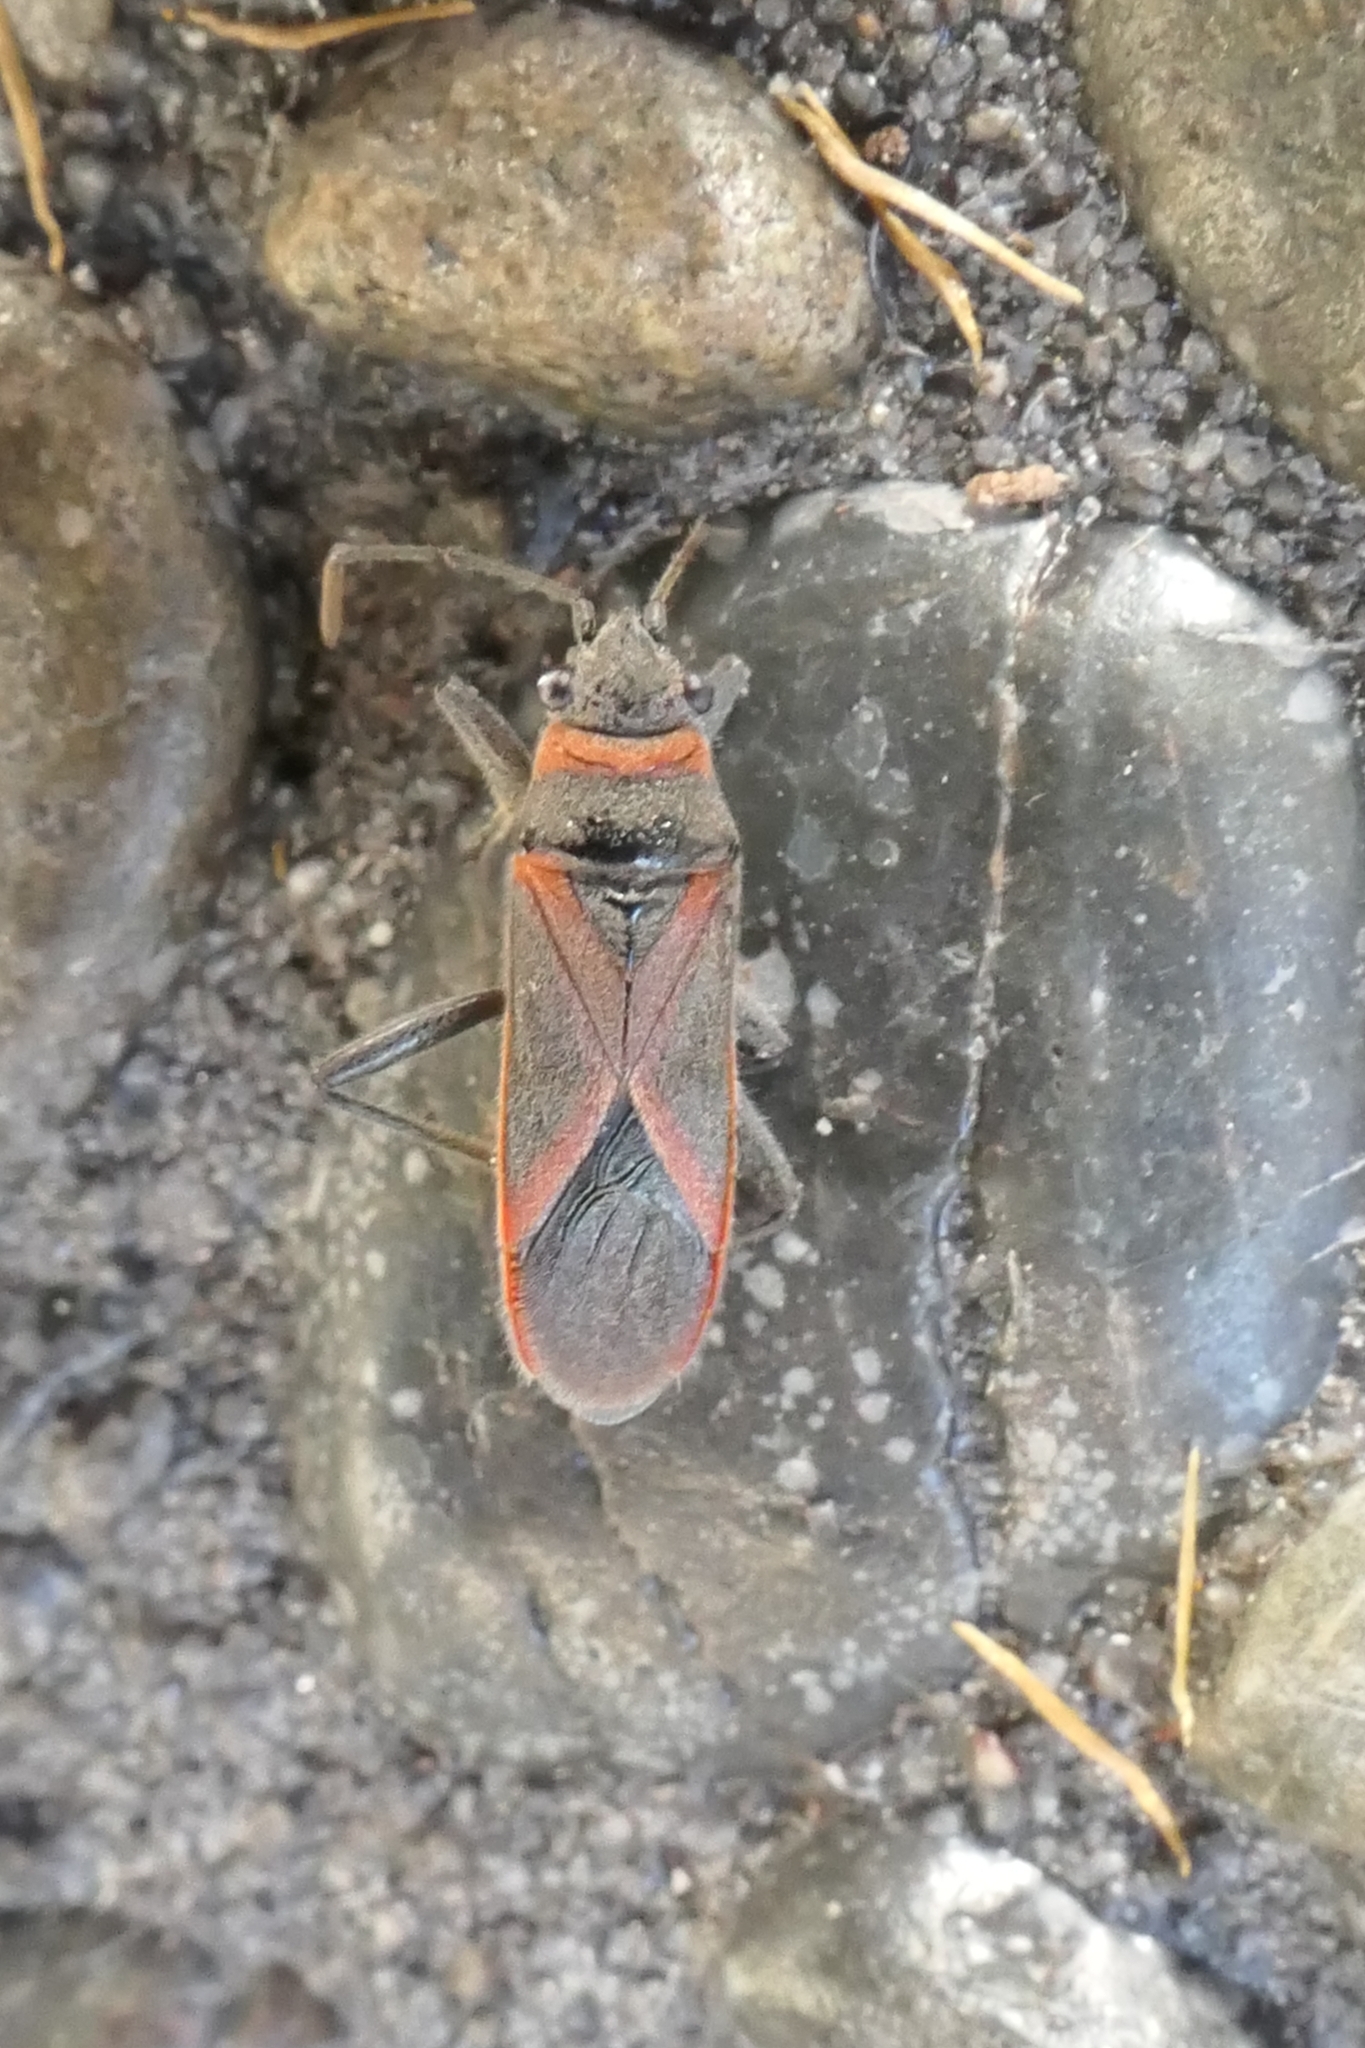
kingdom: Animalia
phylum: Arthropoda
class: Insecta
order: Hemiptera
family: Lygaeidae
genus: Arocatus
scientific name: Arocatus rusticus
